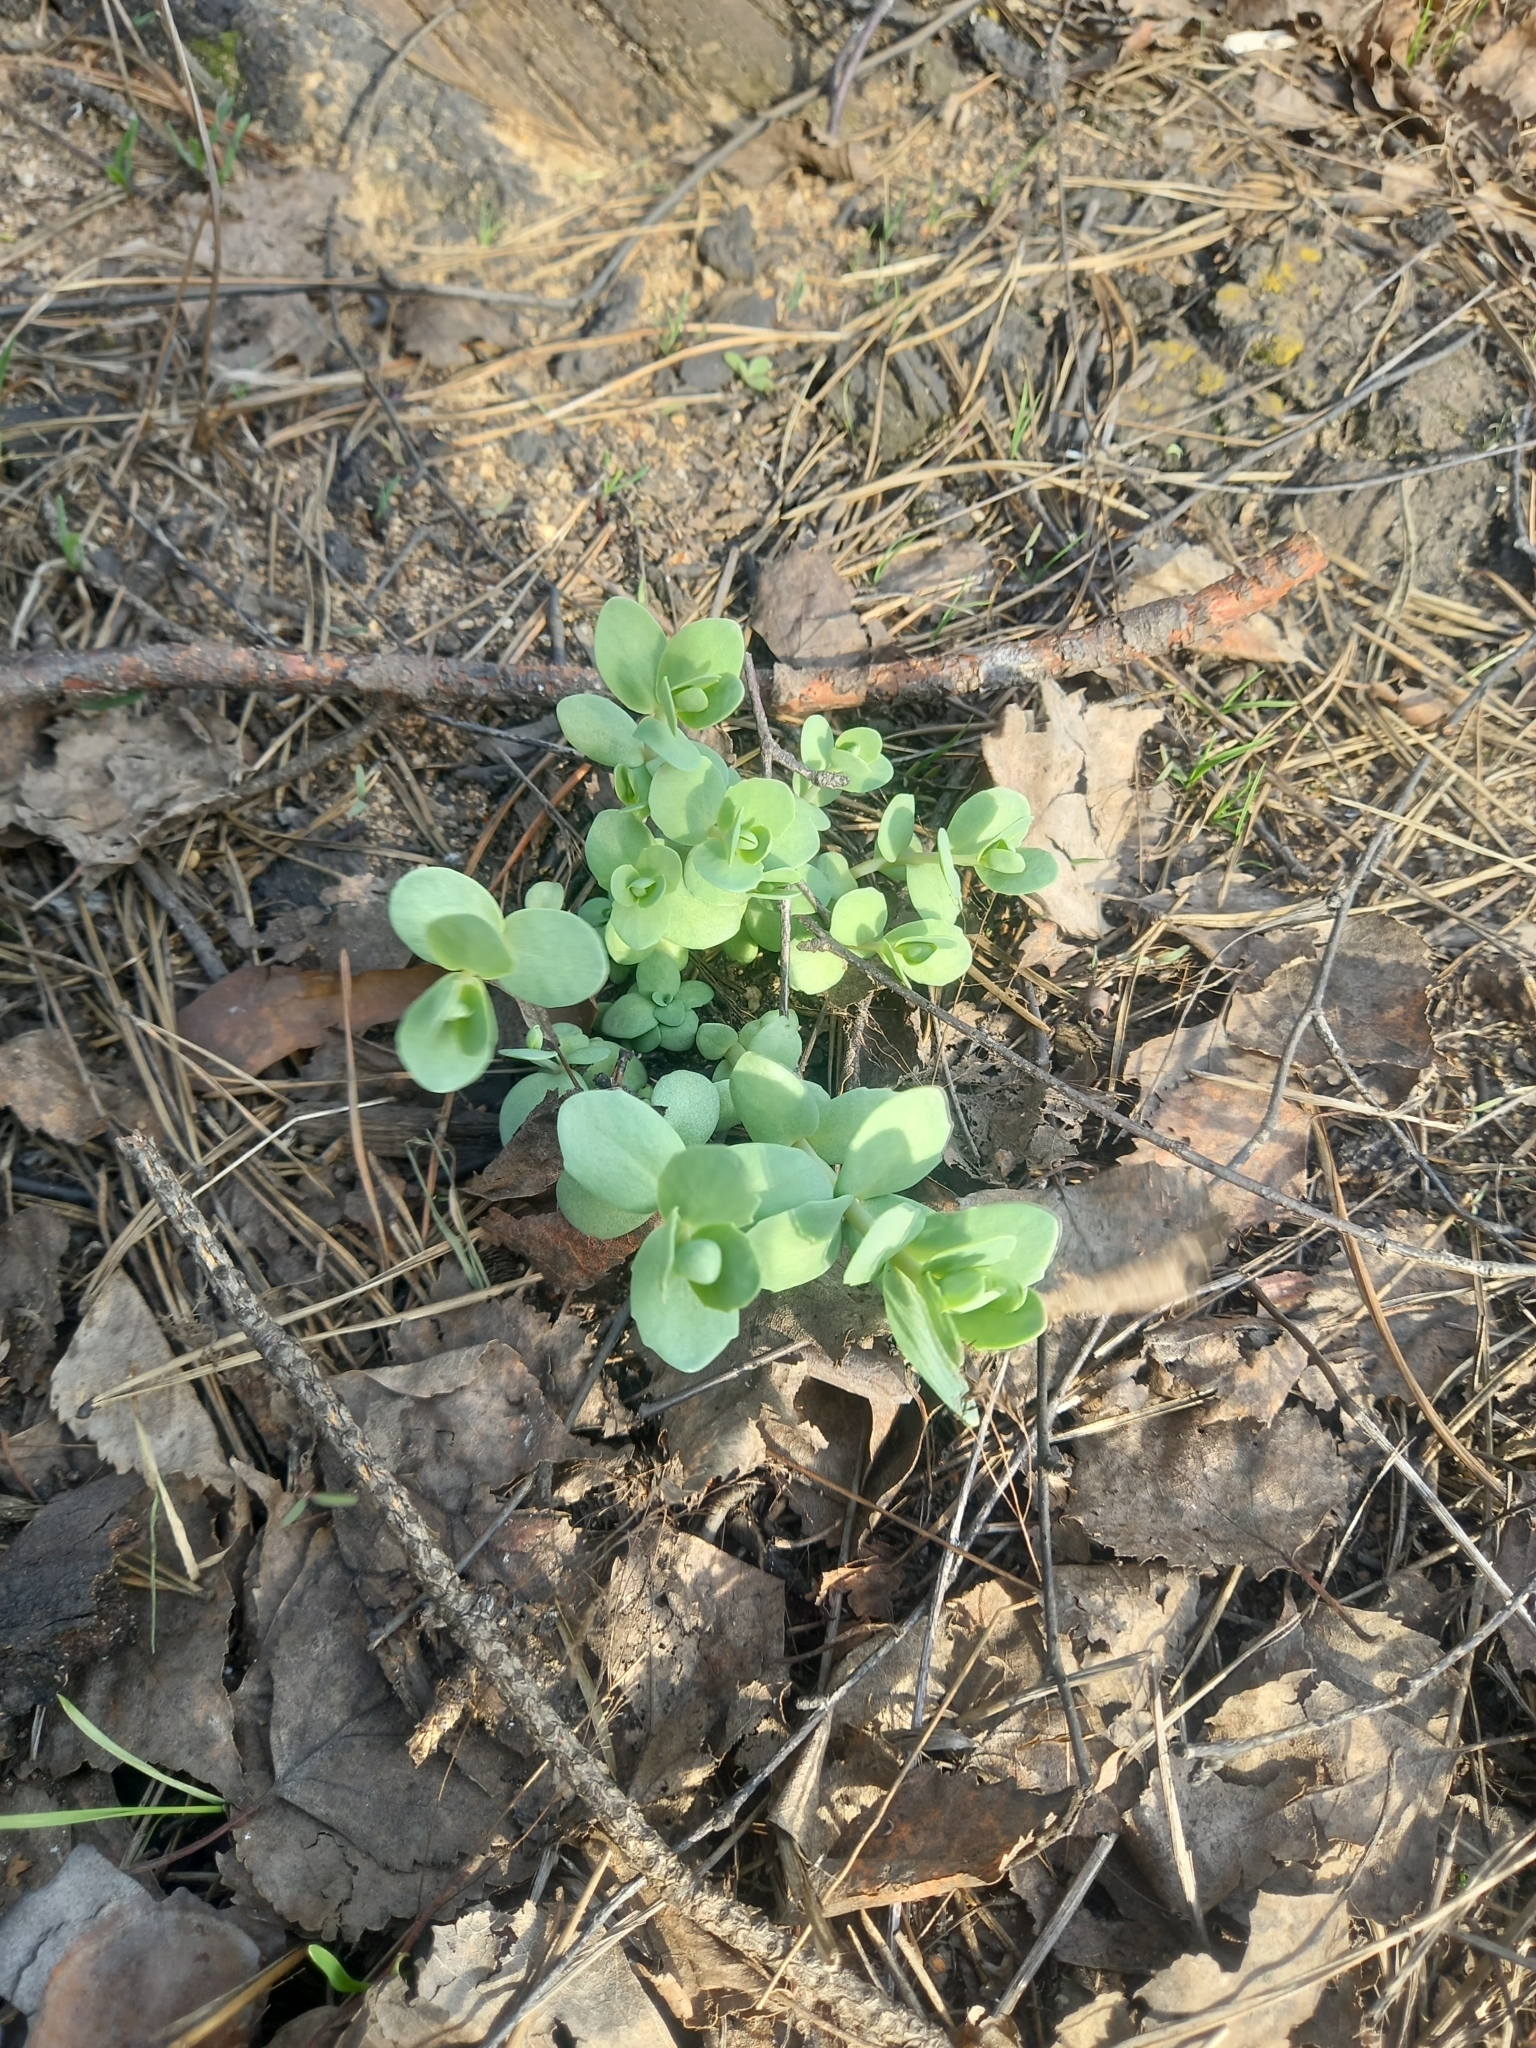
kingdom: Plantae
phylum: Tracheophyta
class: Magnoliopsida
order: Saxifragales
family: Crassulaceae
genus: Hylotelephium
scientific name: Hylotelephium maximum
